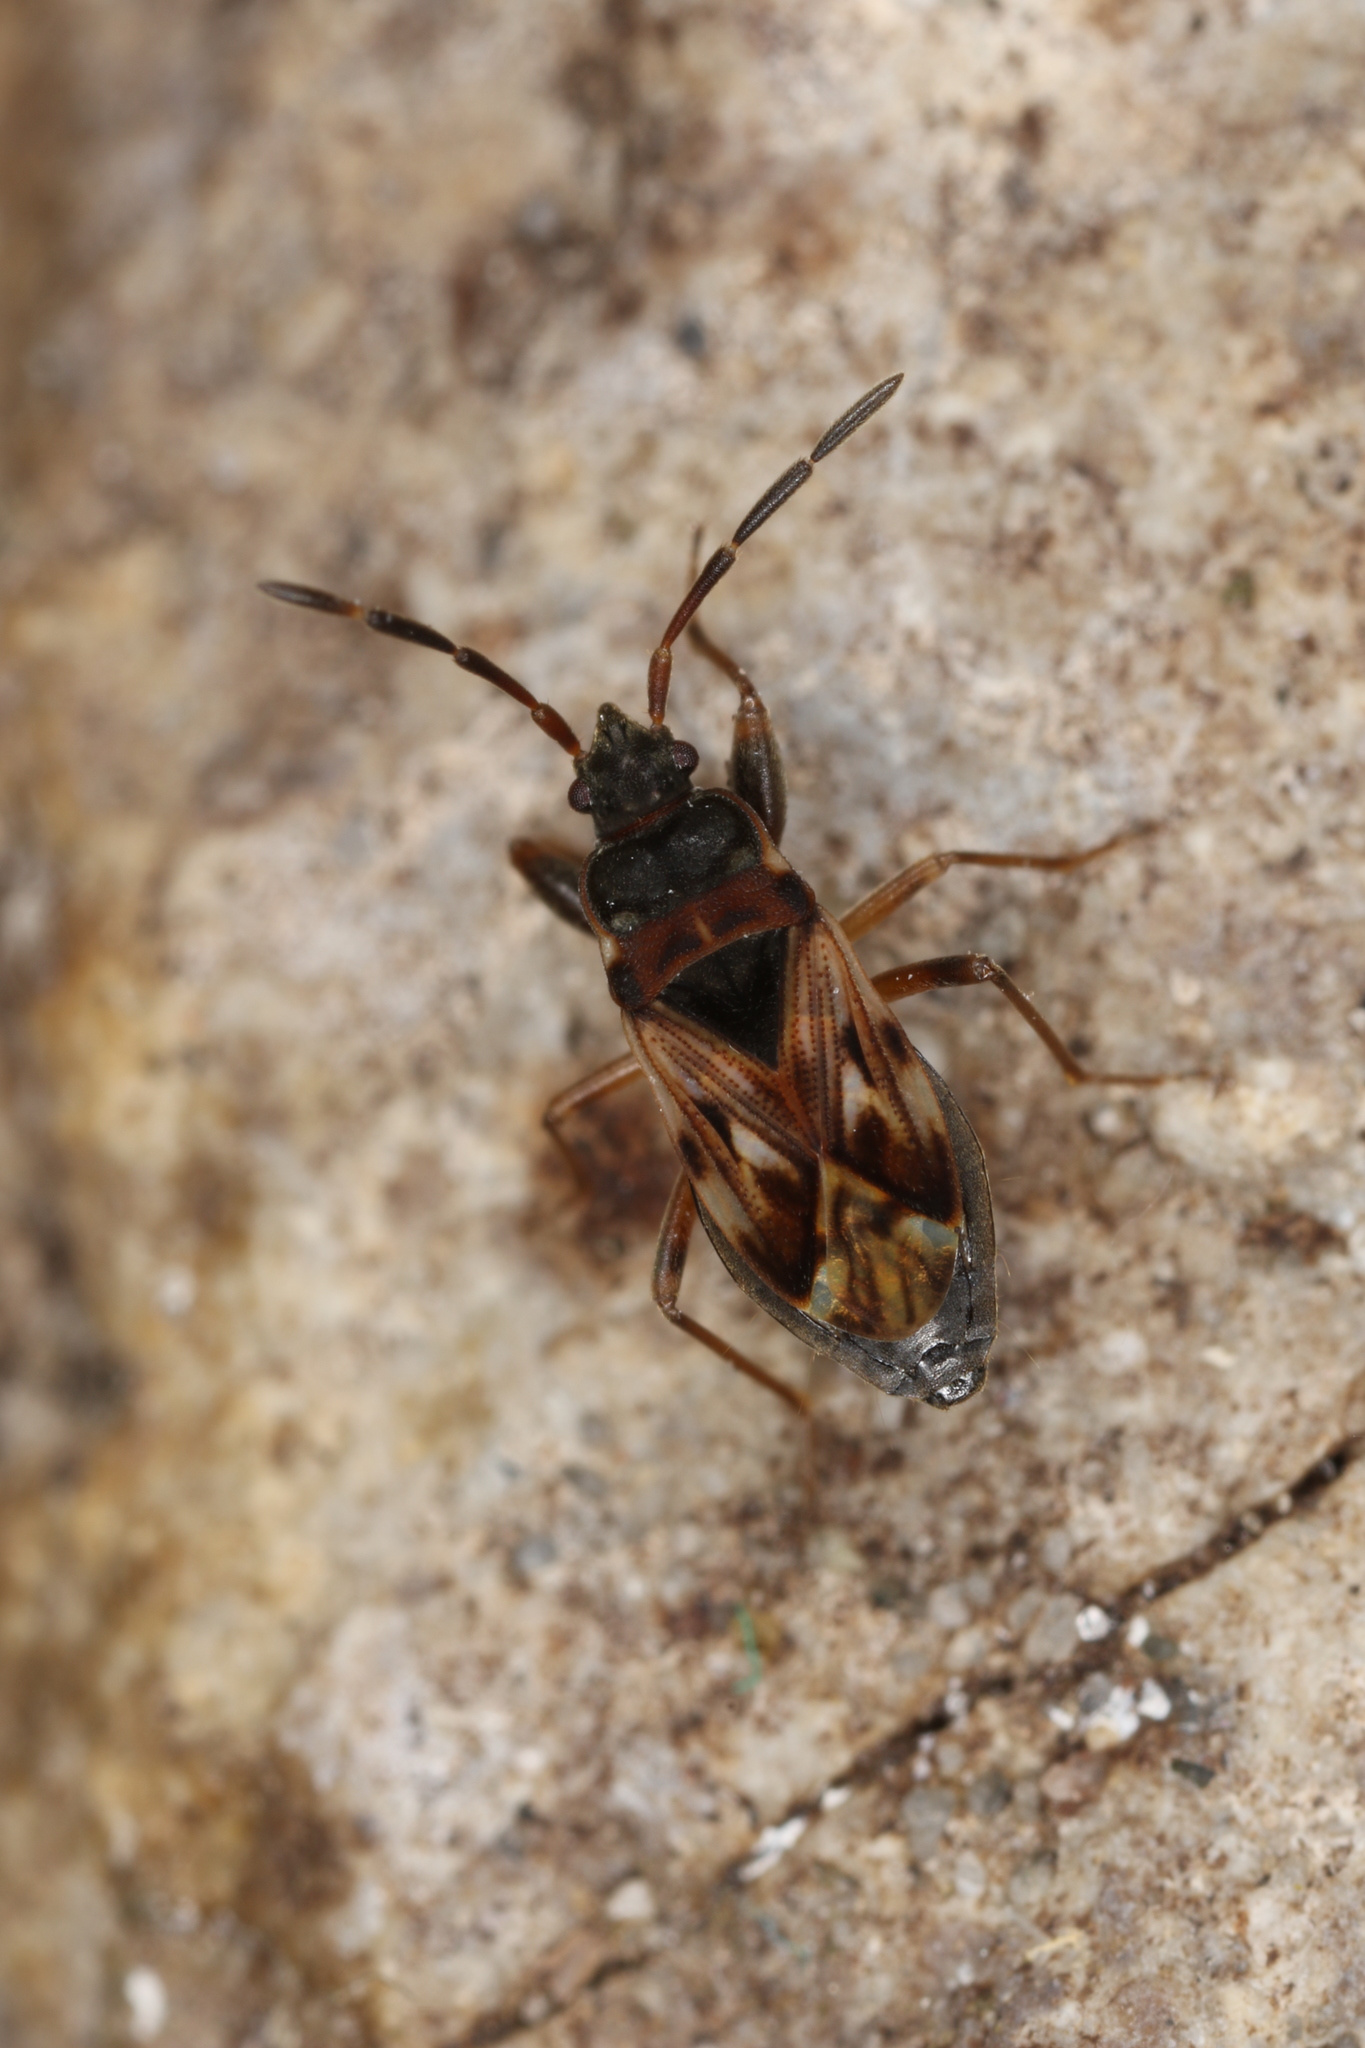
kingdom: Animalia
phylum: Arthropoda
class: Insecta
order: Hemiptera
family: Rhyparochromidae
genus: Scolopostethus
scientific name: Scolopostethus thomsoni
